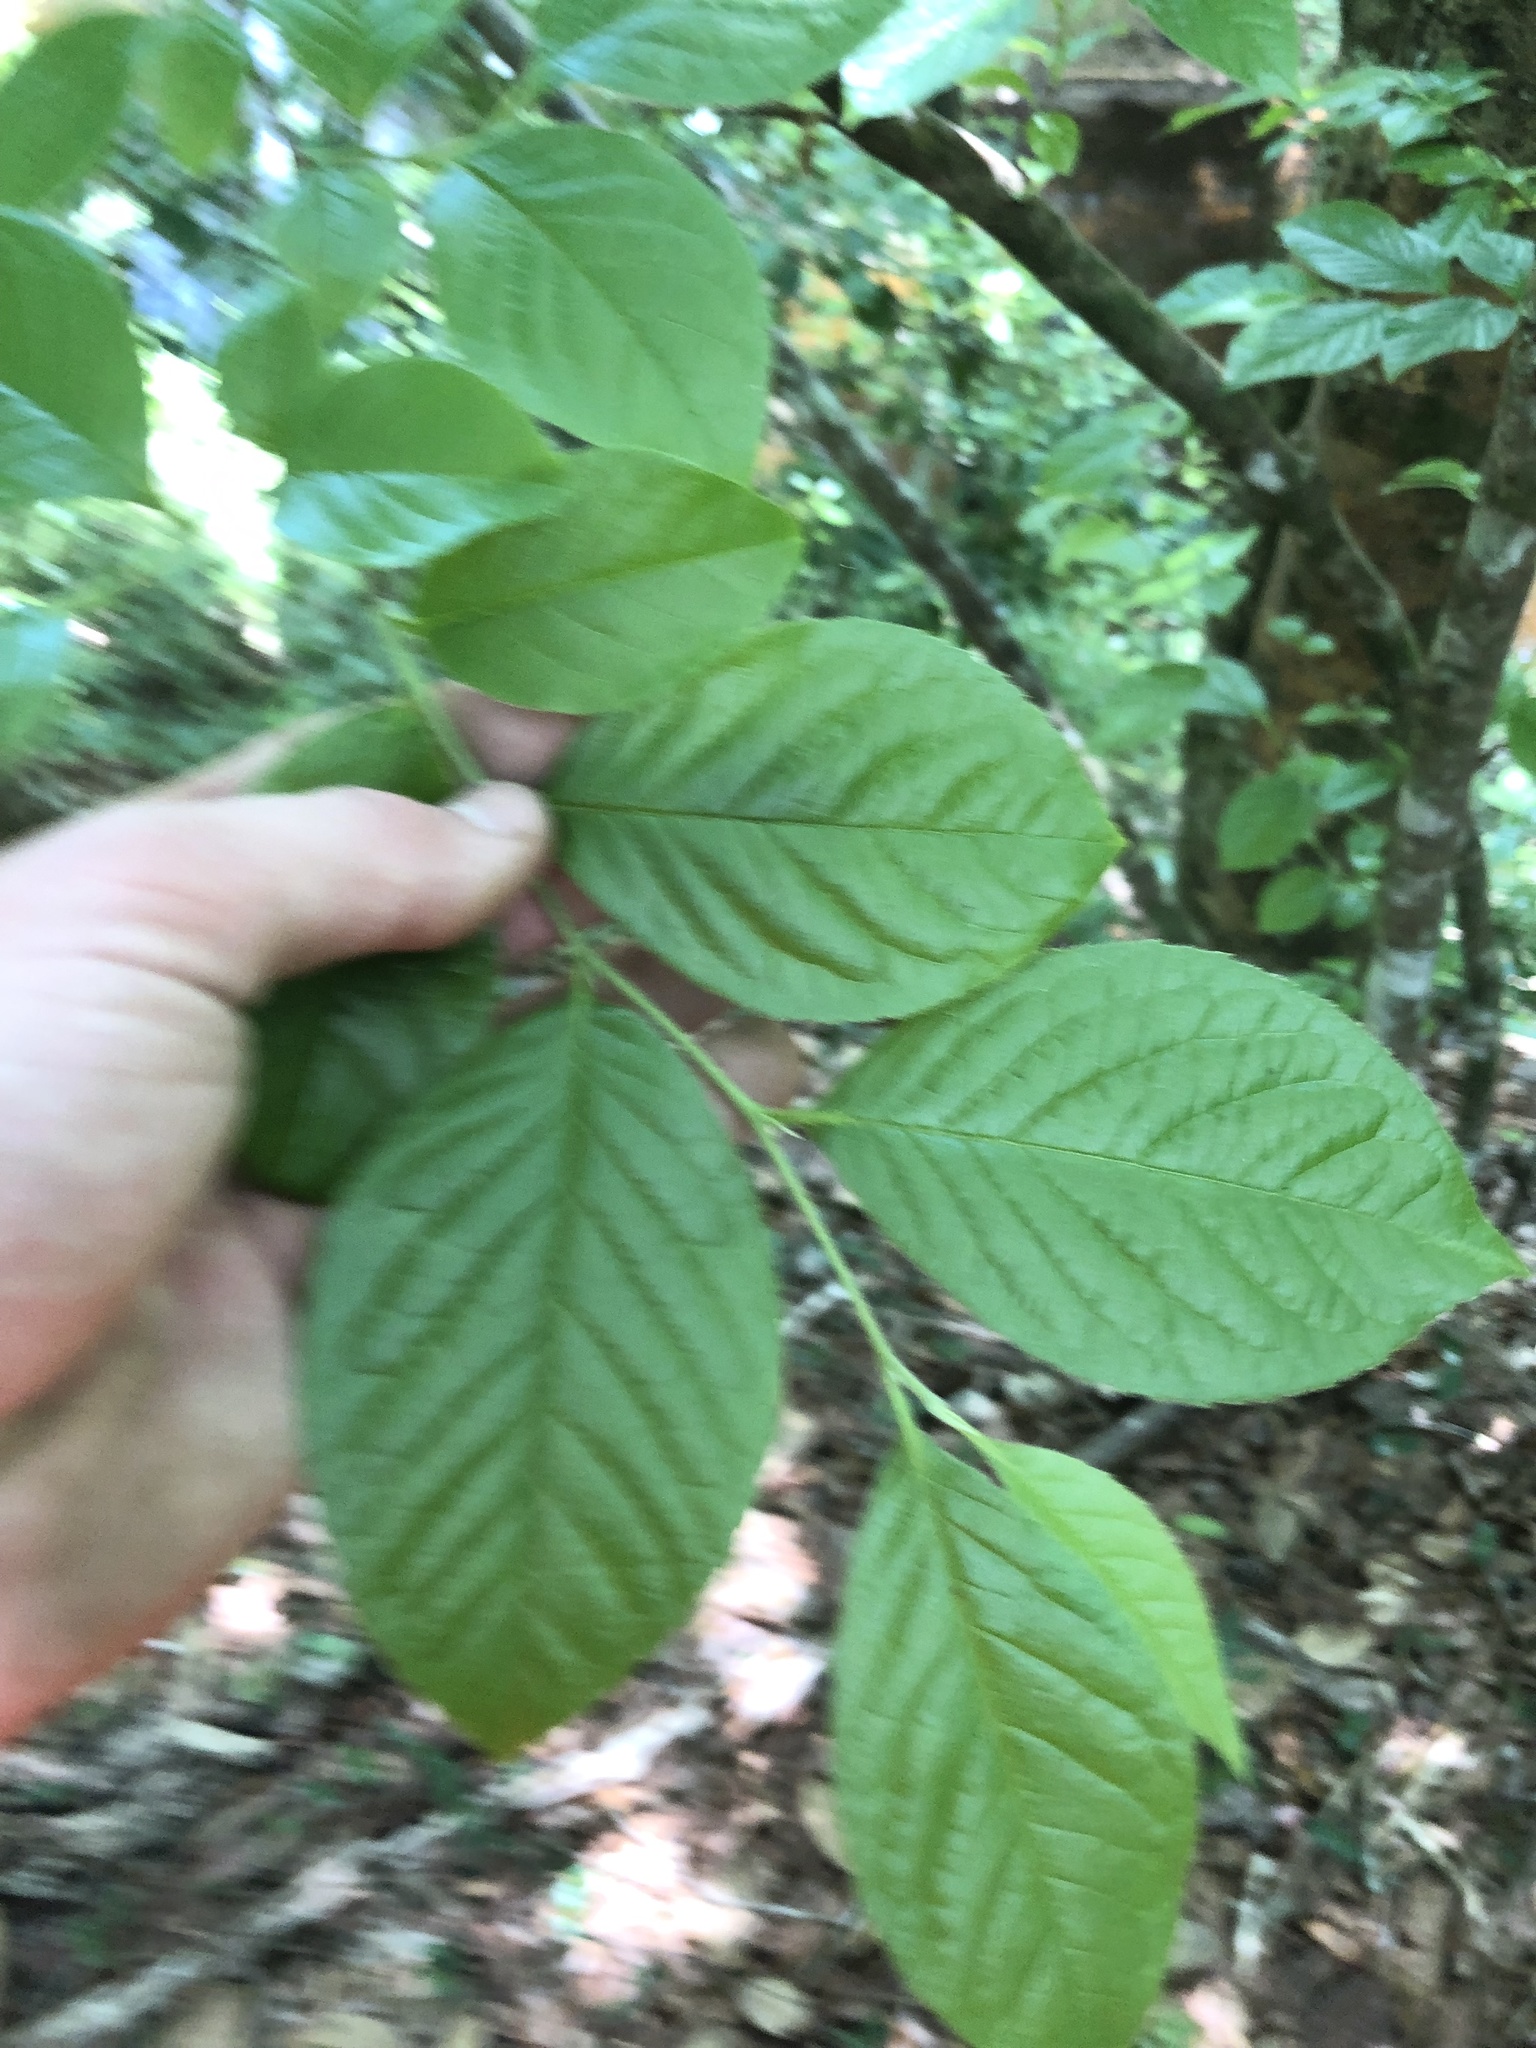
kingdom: Plantae
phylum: Tracheophyta
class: Magnoliopsida
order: Ericales
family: Theaceae
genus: Stewartia
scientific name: Stewartia malacodendron
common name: Virginia stewartia
